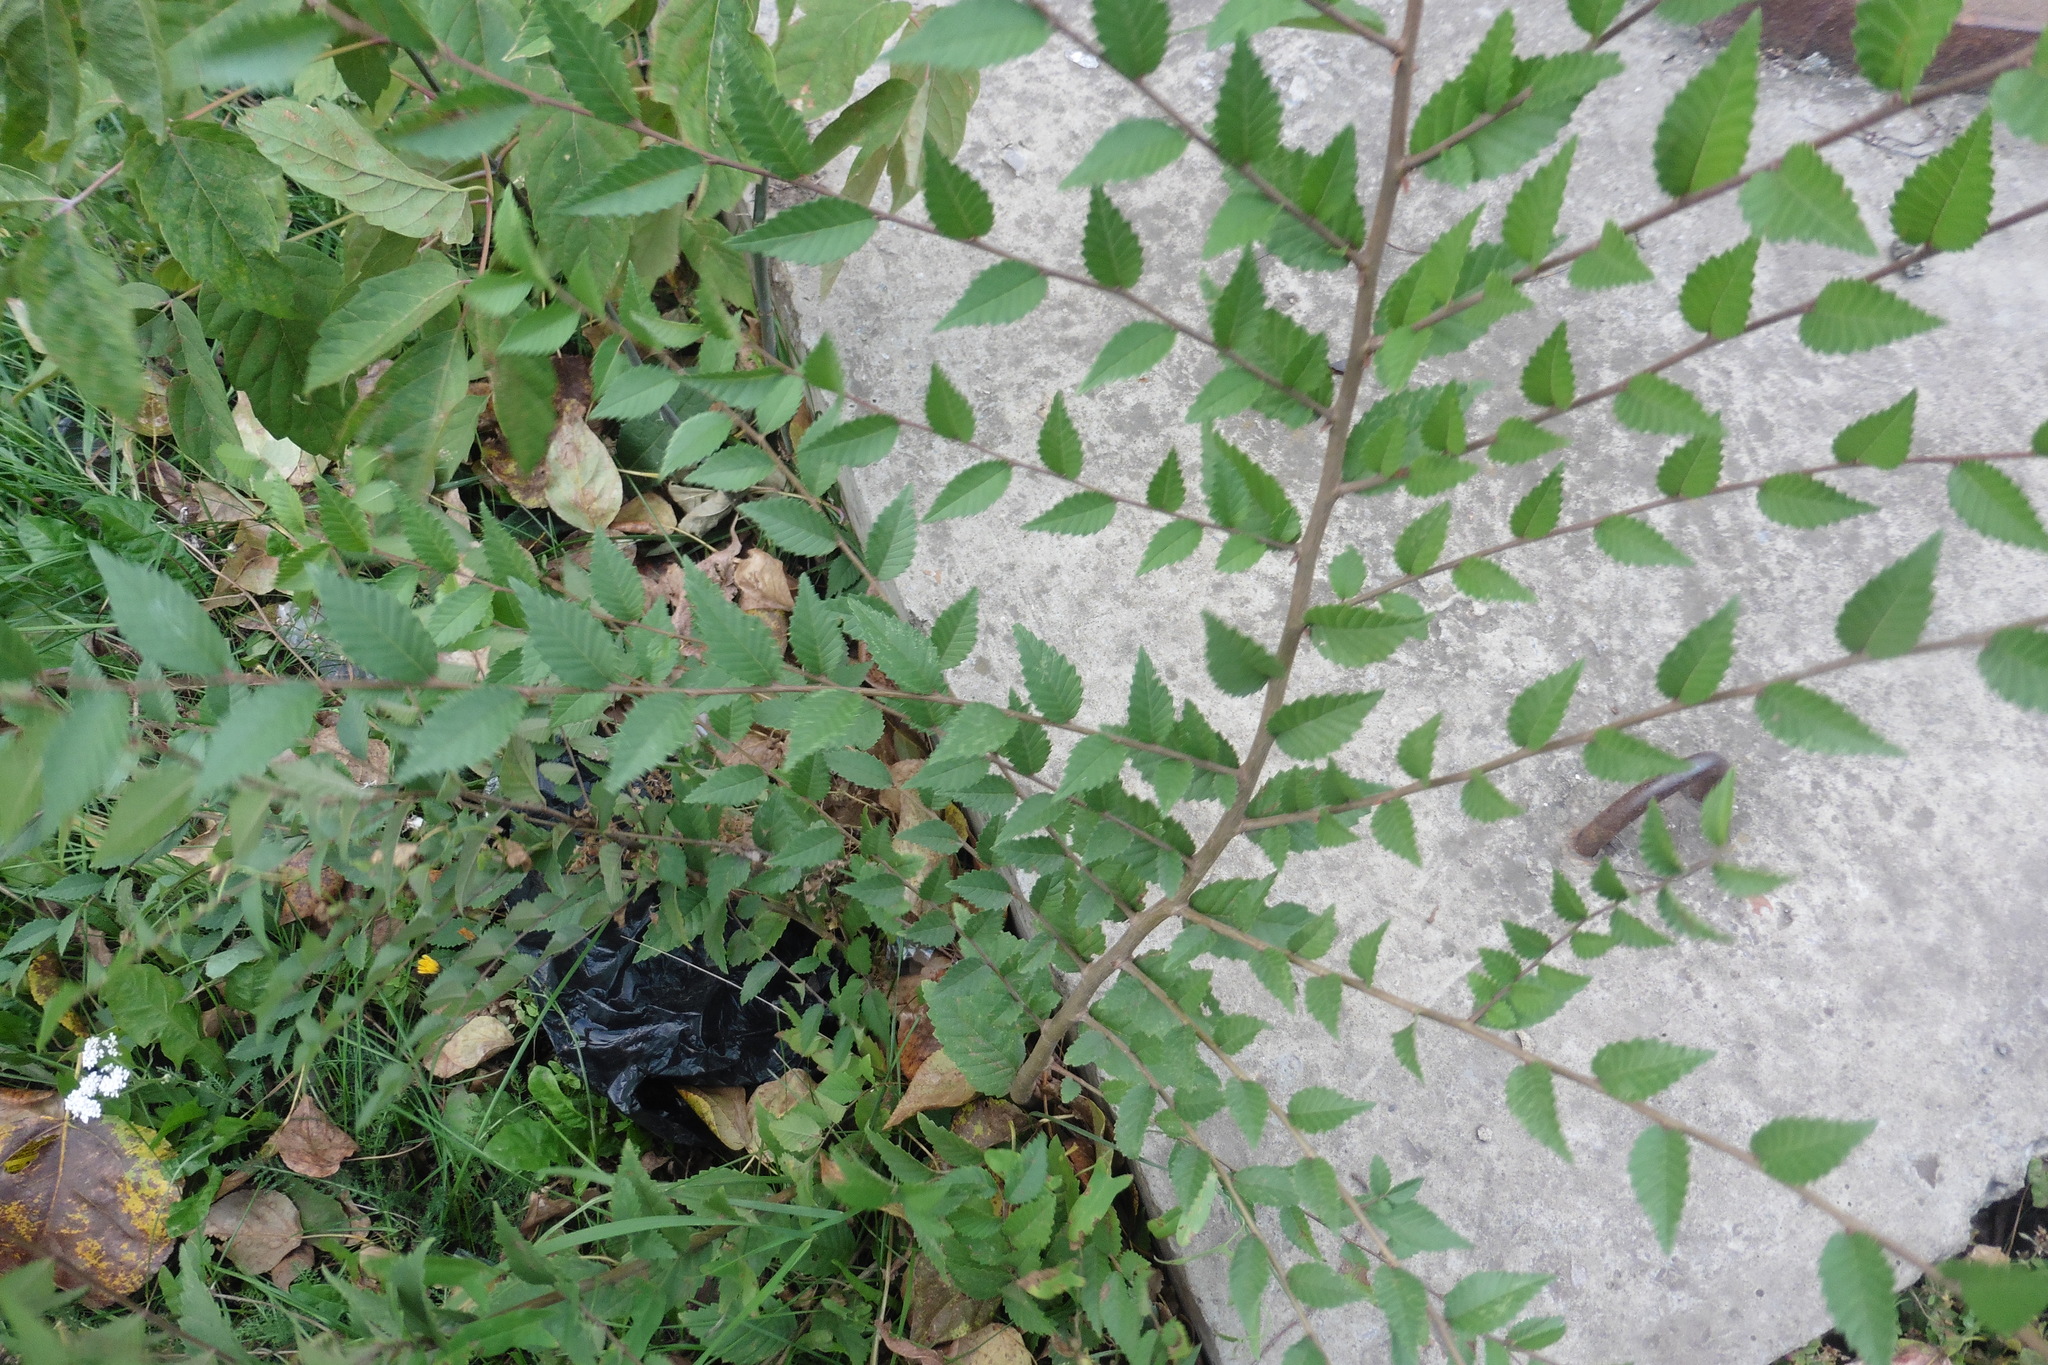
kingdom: Plantae
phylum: Tracheophyta
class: Magnoliopsida
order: Rosales
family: Ulmaceae
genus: Ulmus
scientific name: Ulmus pumila
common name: Siberian elm
